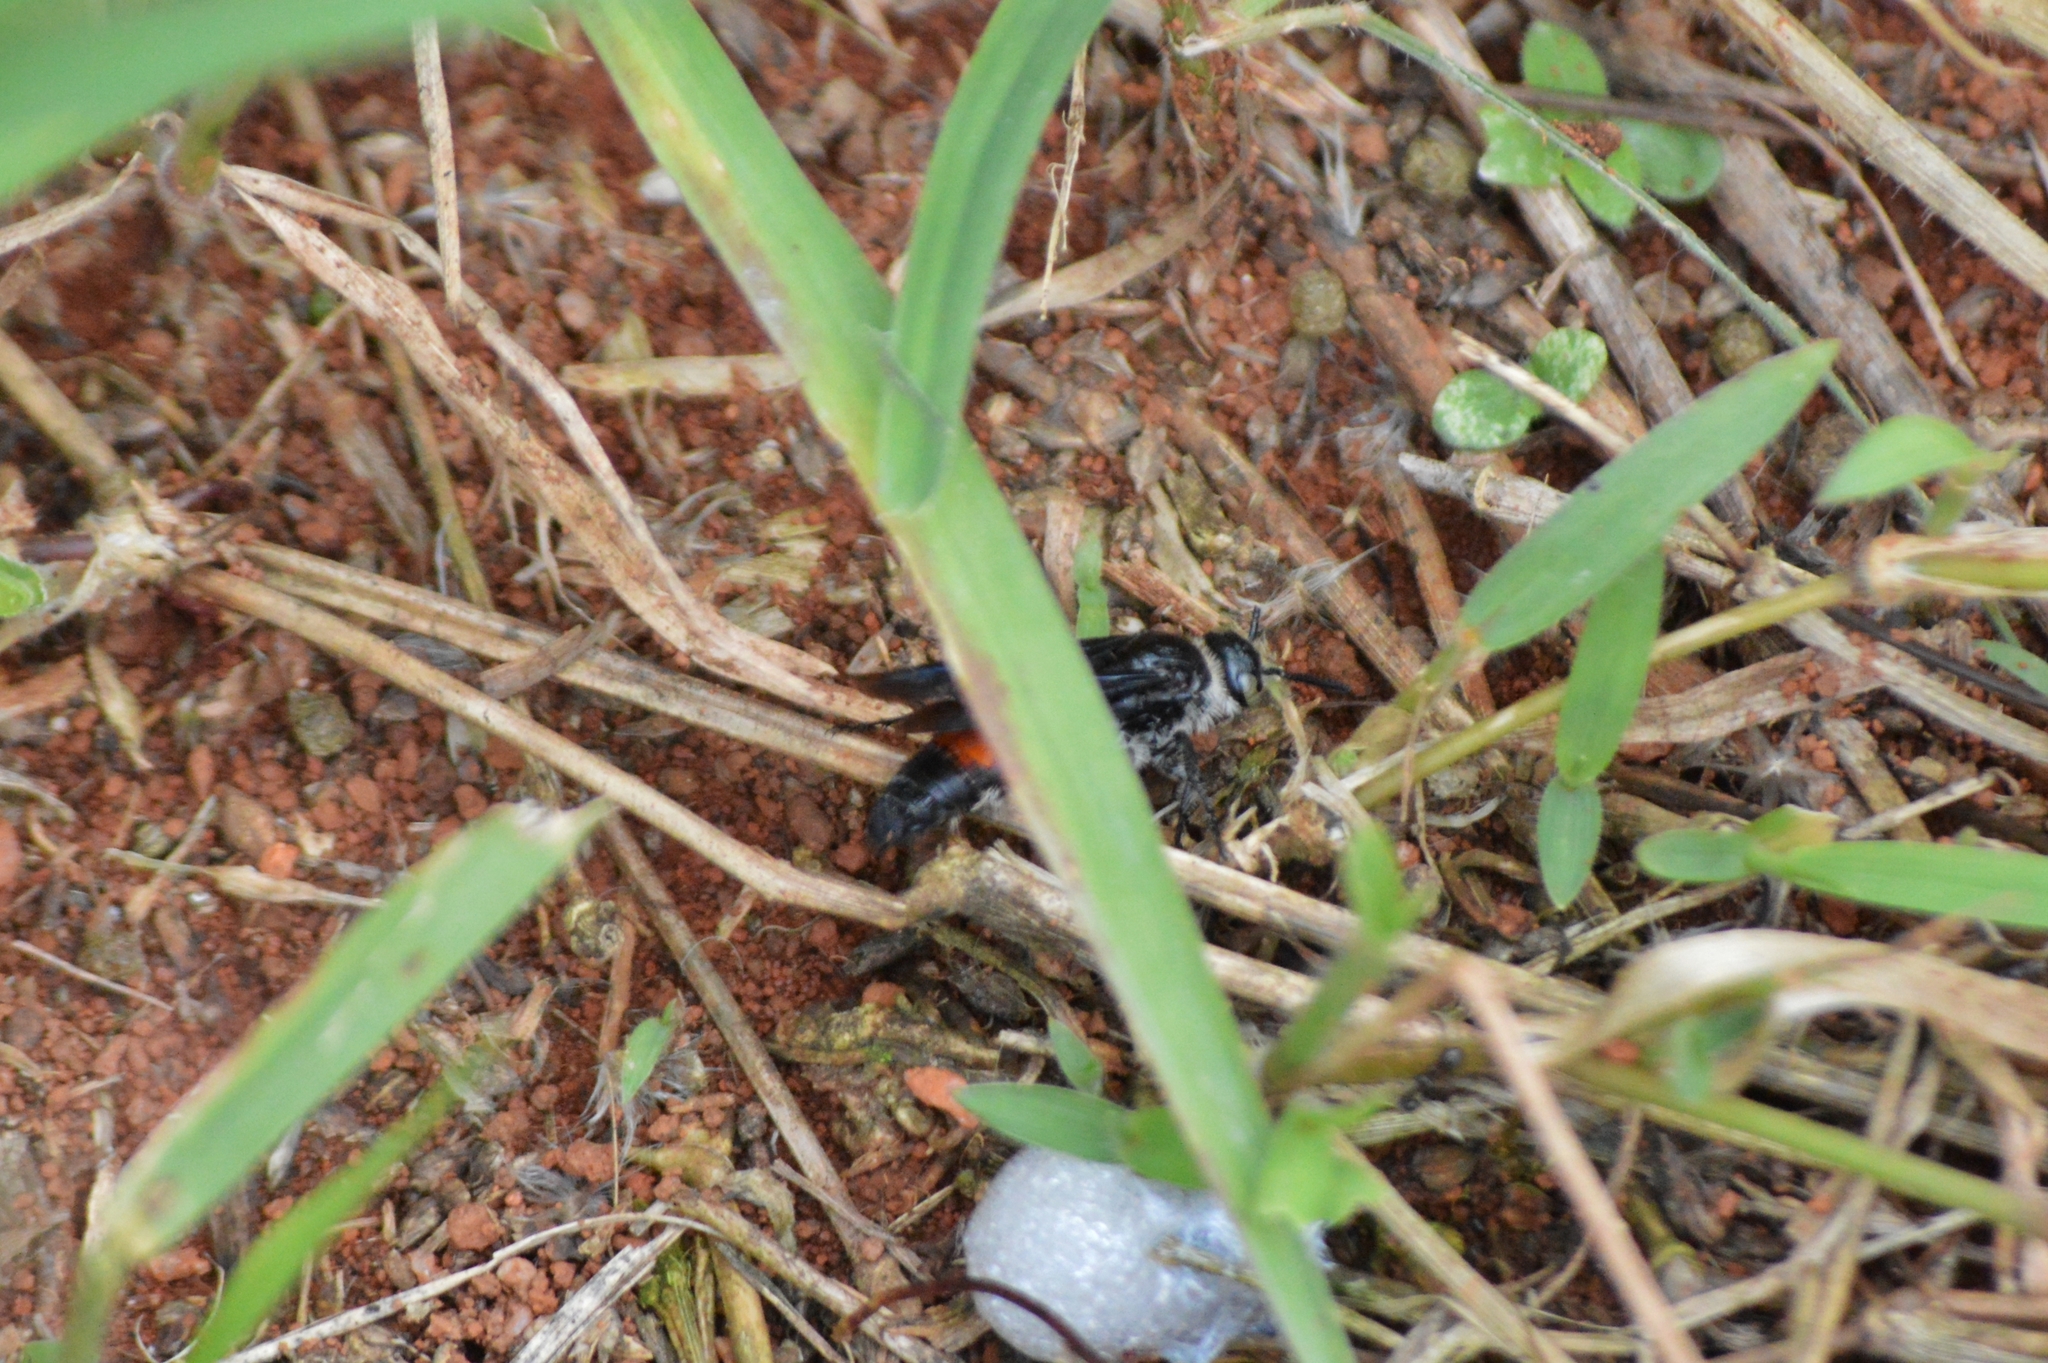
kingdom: Animalia
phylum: Arthropoda
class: Insecta
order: Hymenoptera
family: Scoliidae
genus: Dielis
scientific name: Dielis dorsata
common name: Scoliid wasp
